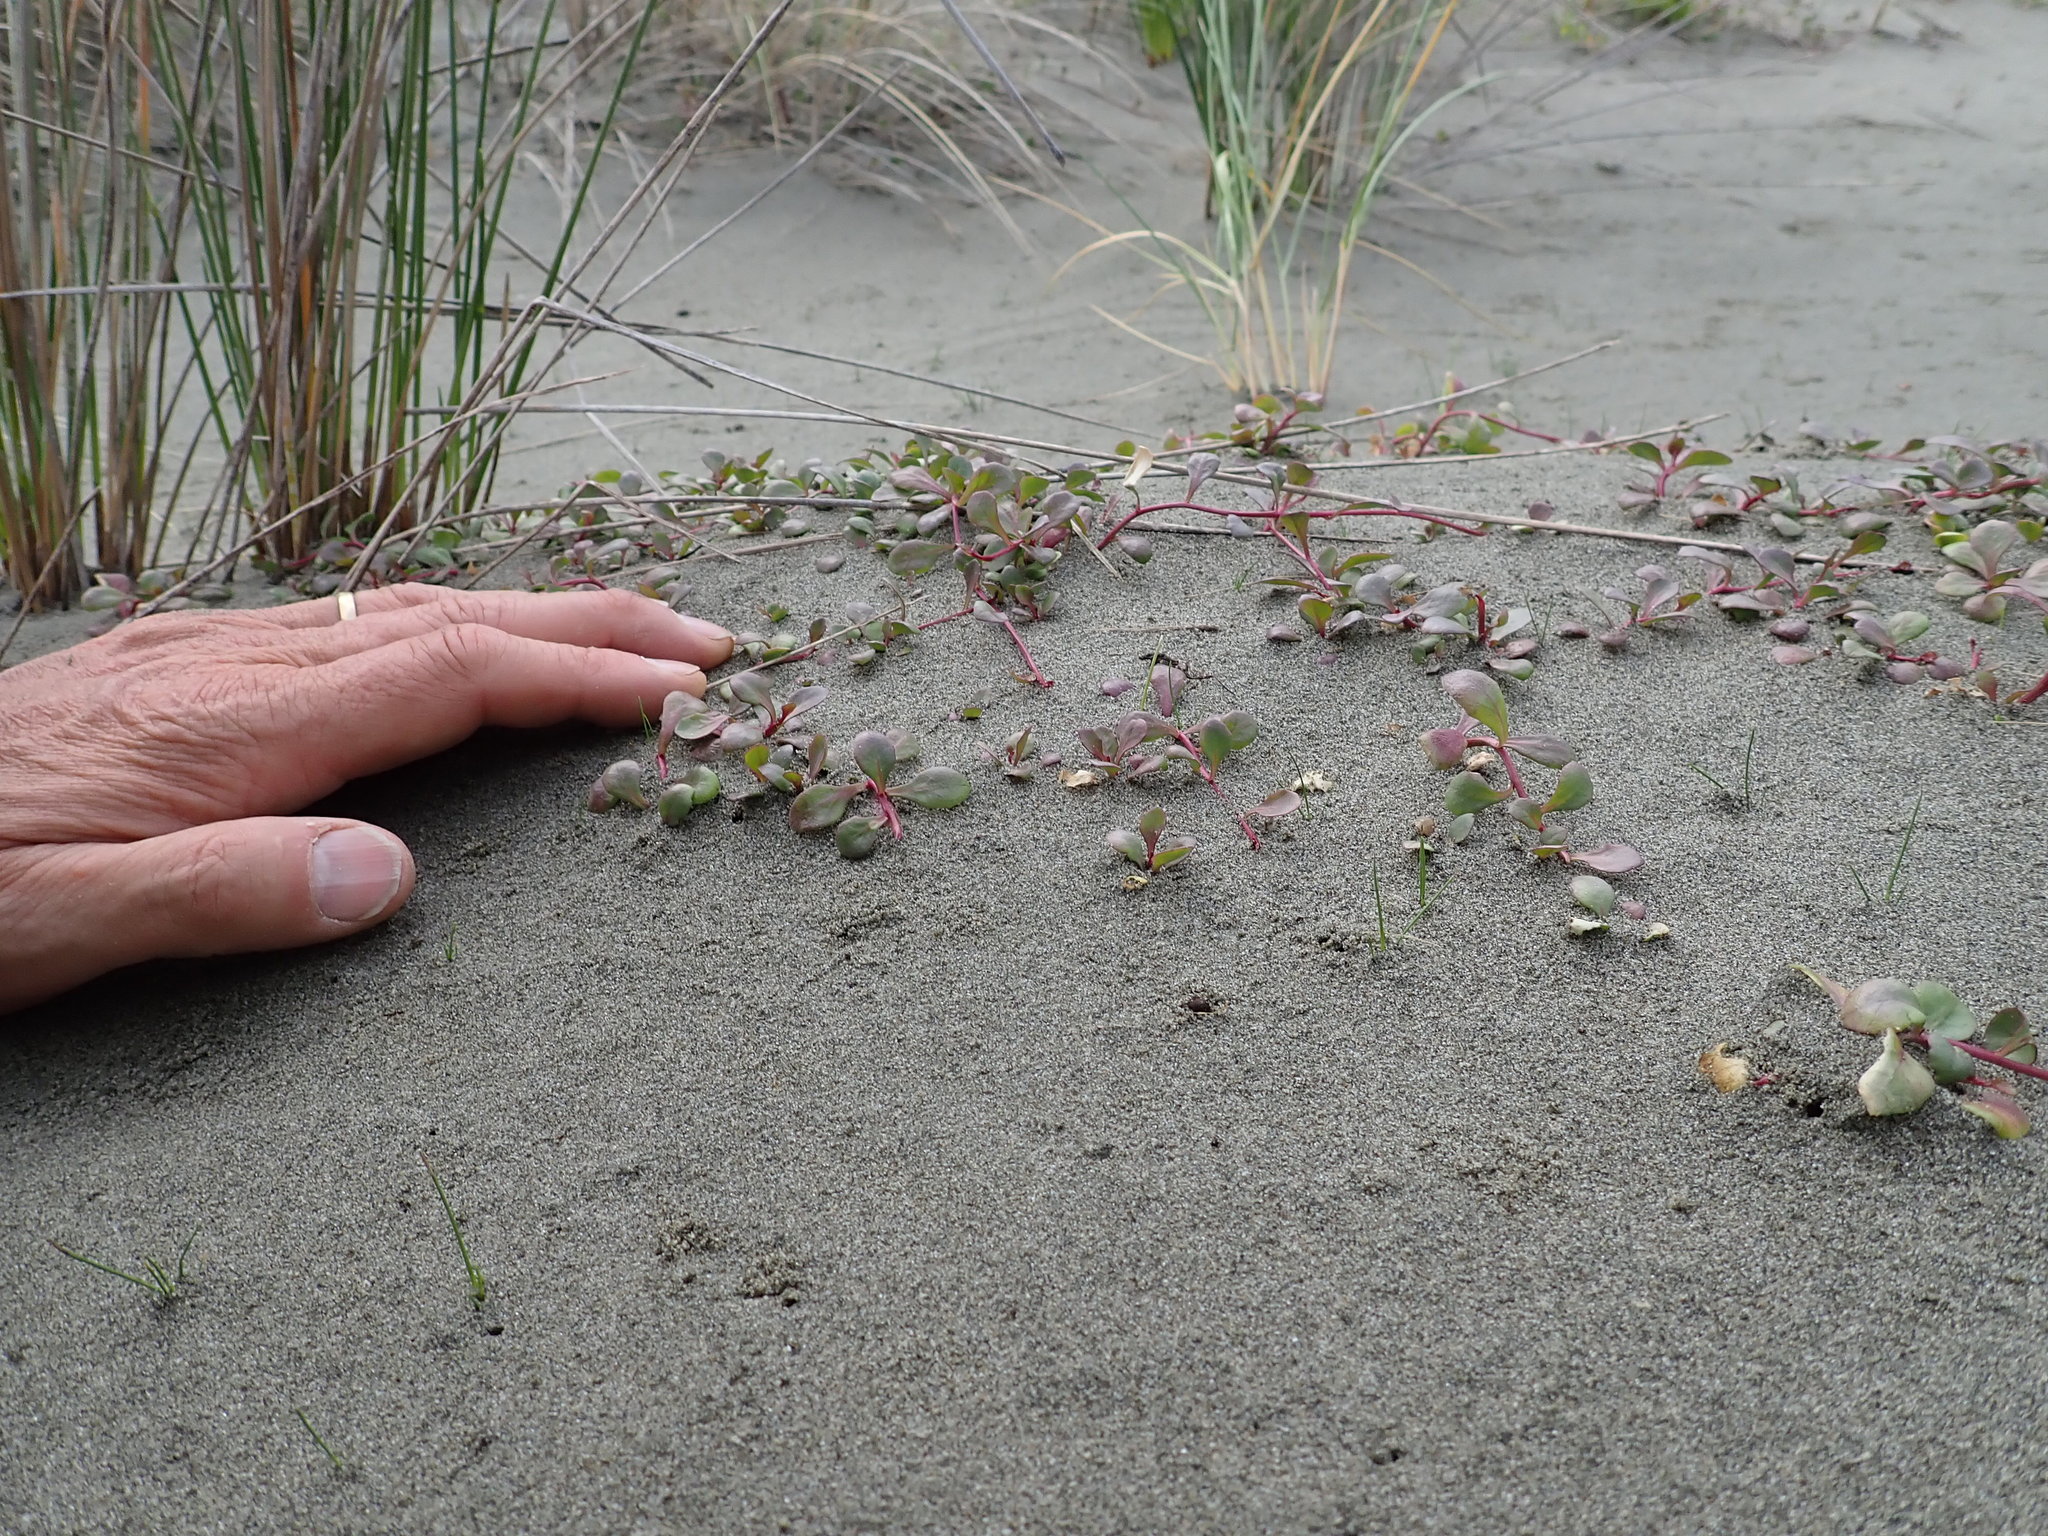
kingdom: Plantae
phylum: Tracheophyta
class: Magnoliopsida
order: Asterales
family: Campanulaceae
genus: Lobelia
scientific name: Lobelia anceps
